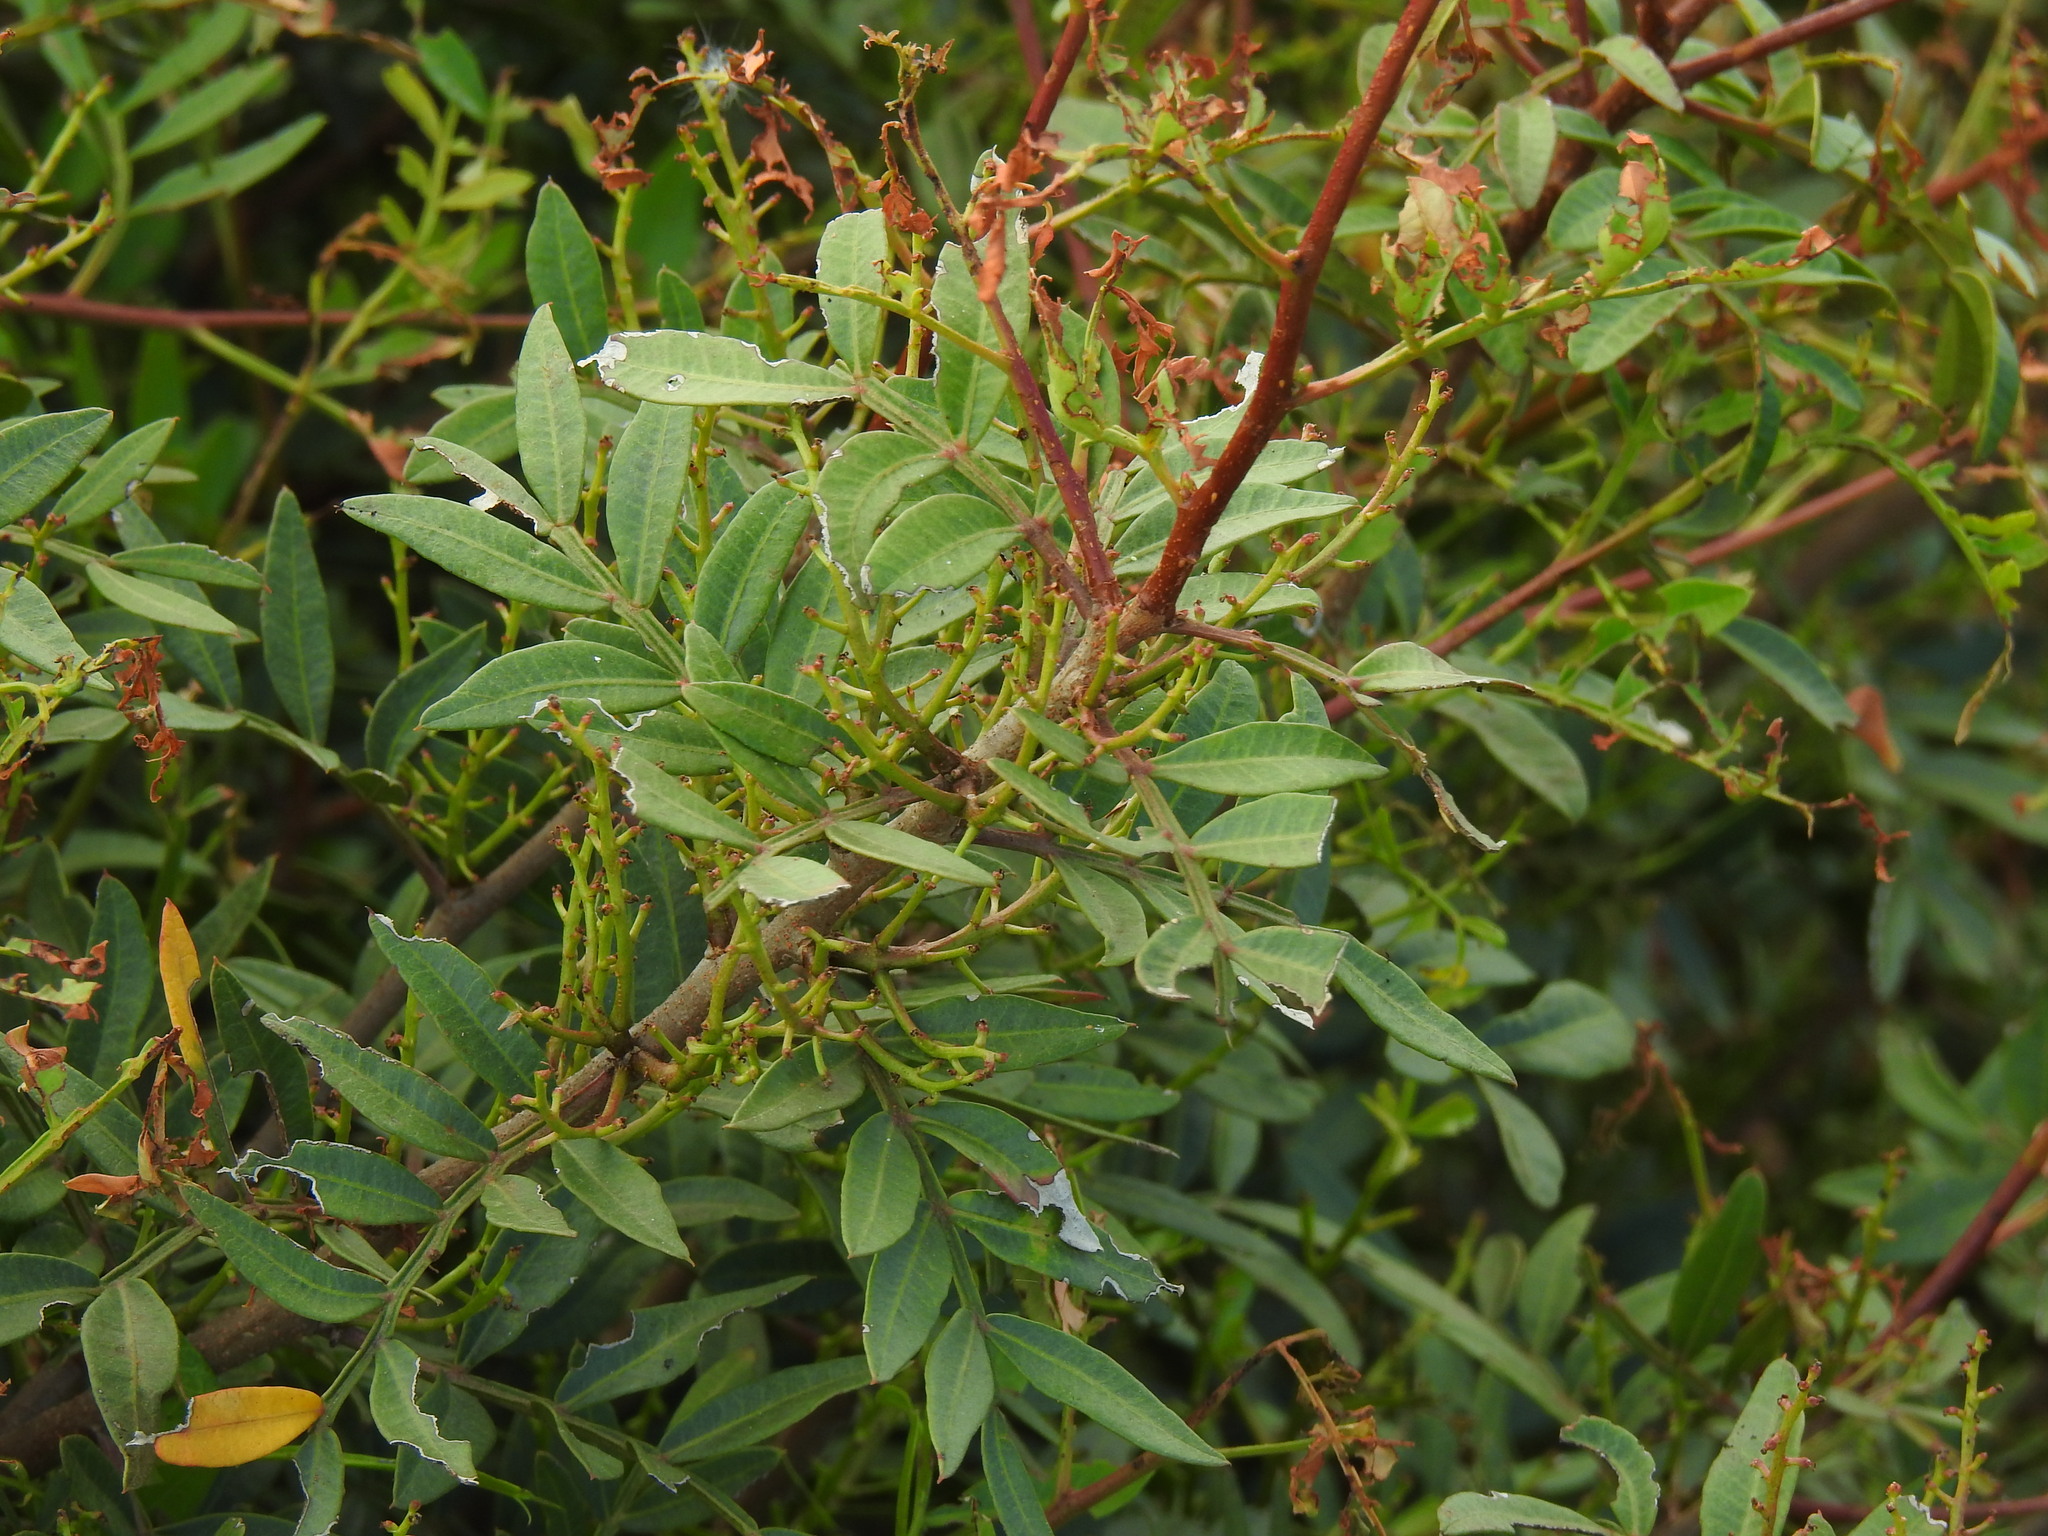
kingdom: Plantae
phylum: Tracheophyta
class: Magnoliopsida
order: Sapindales
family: Anacardiaceae
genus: Pistacia
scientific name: Pistacia lentiscus
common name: Lentisk
